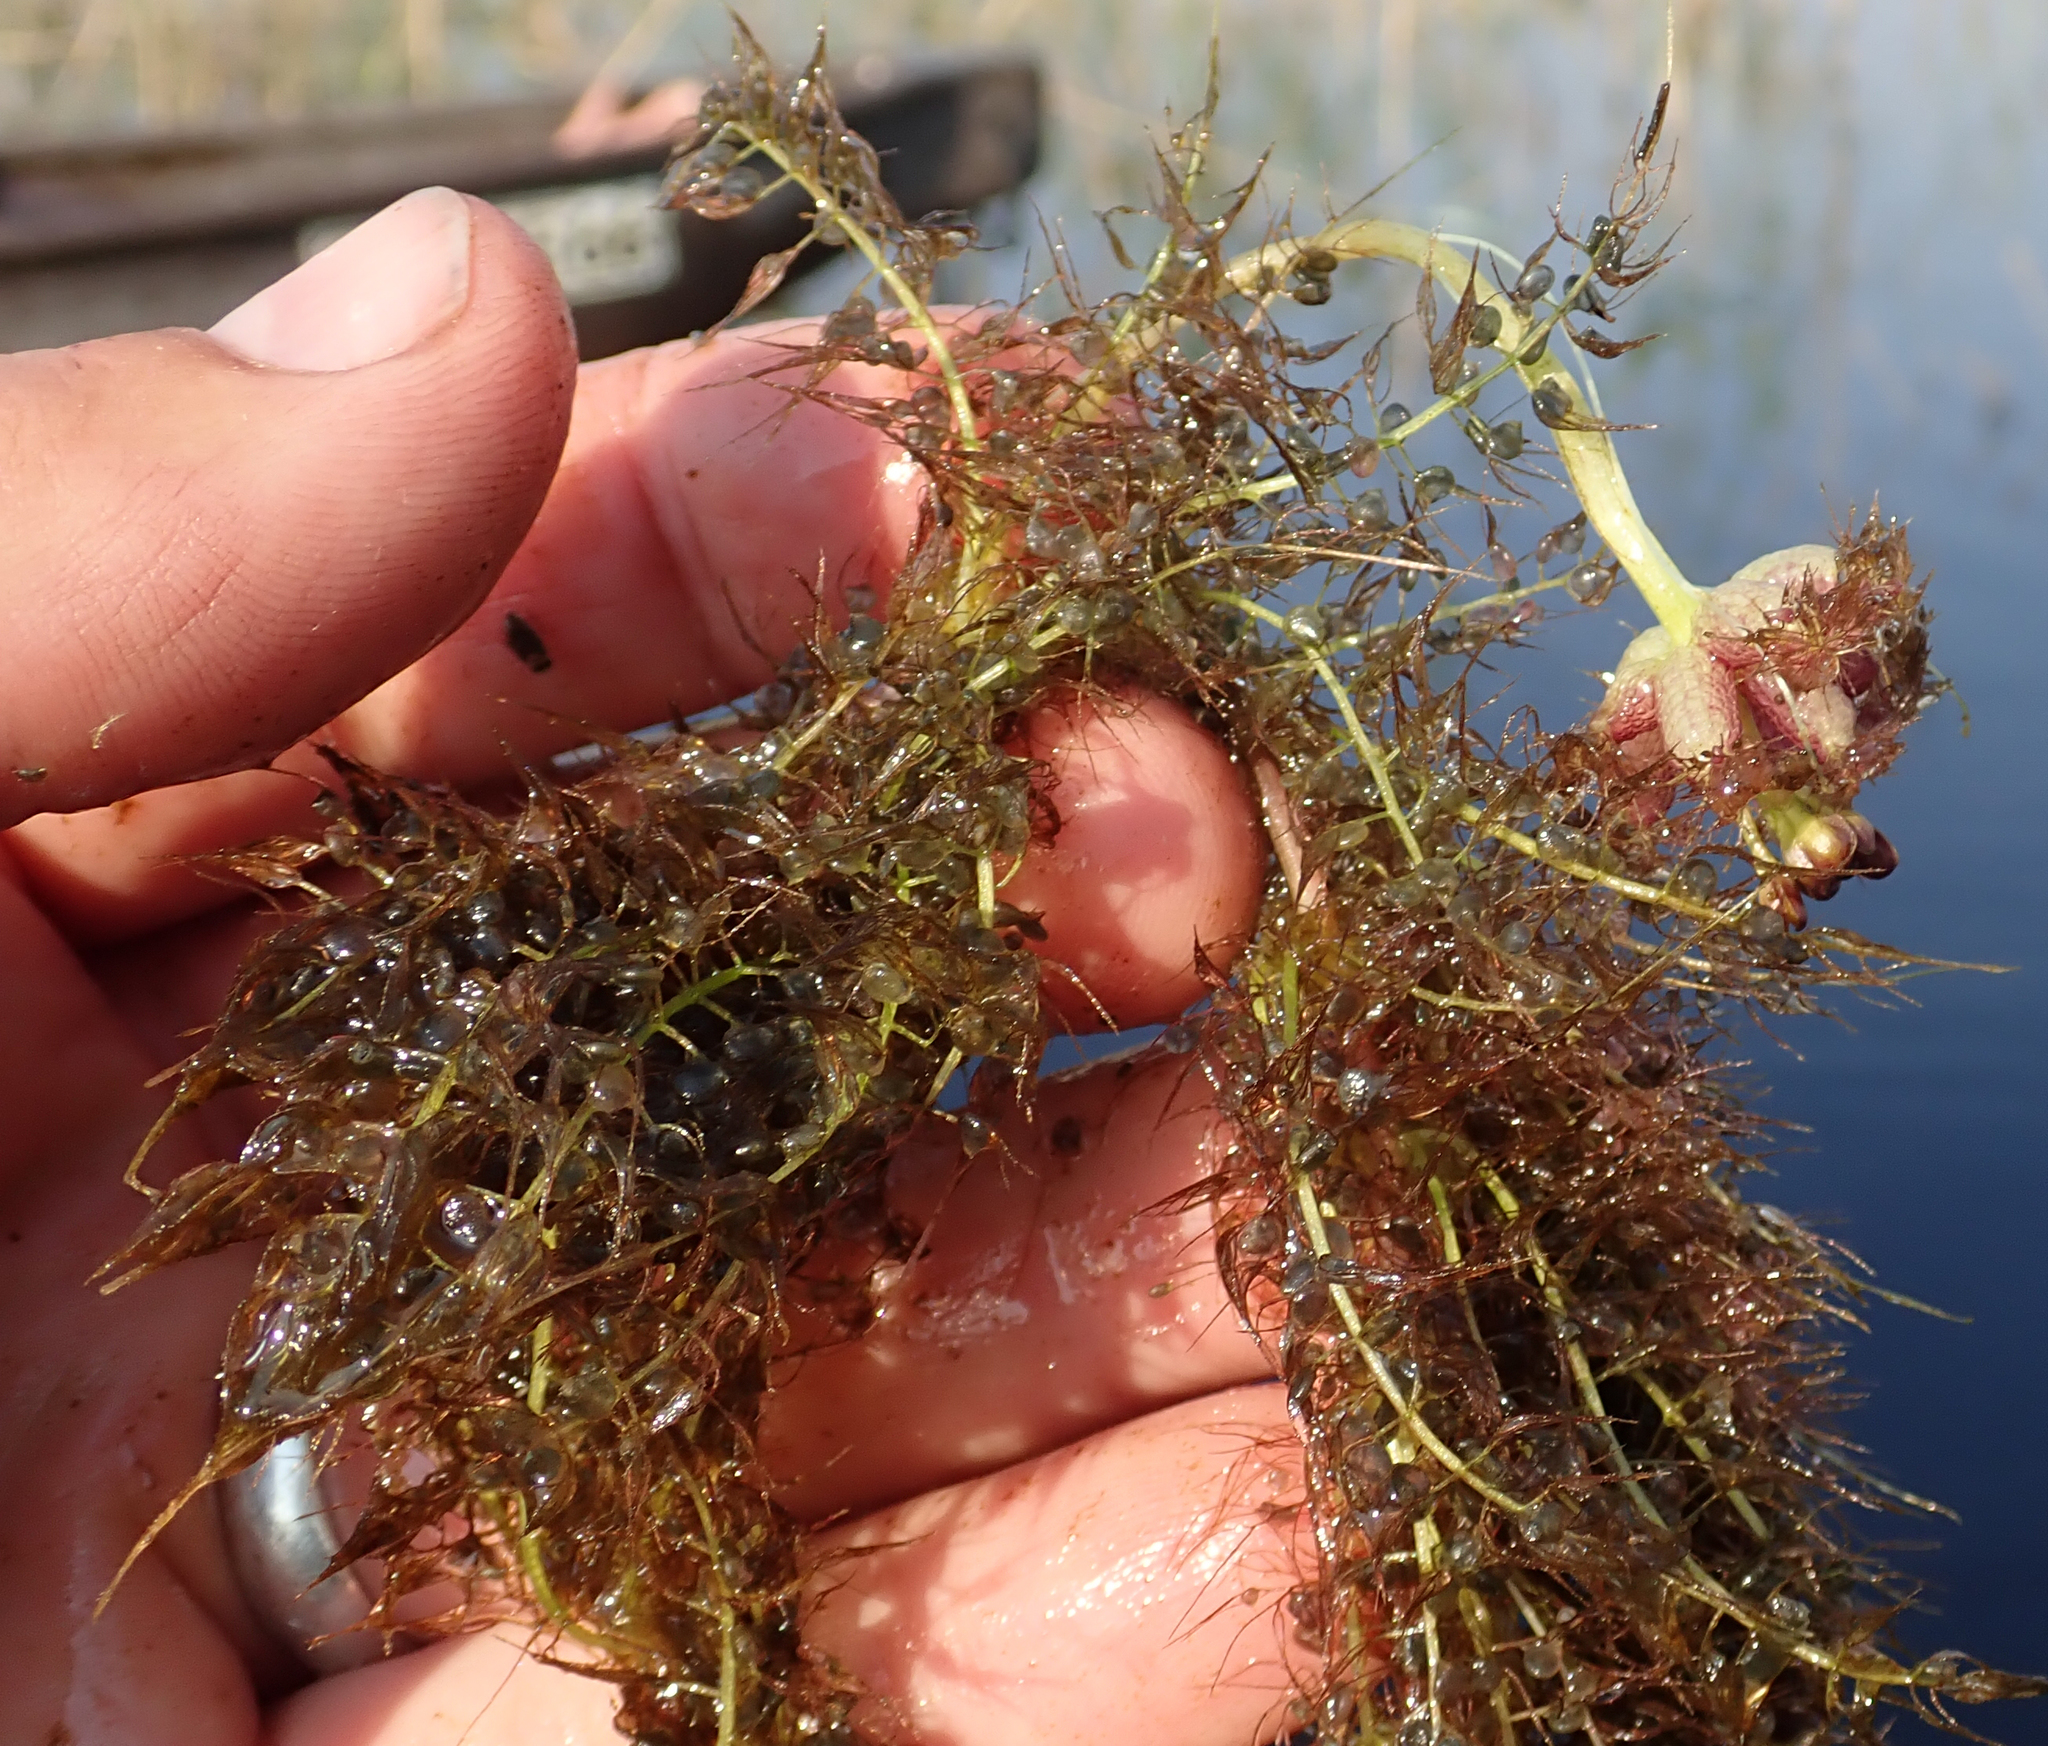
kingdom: Plantae
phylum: Tracheophyta
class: Magnoliopsida
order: Lamiales
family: Lentibulariaceae
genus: Utricularia
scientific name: Utricularia stellaris
